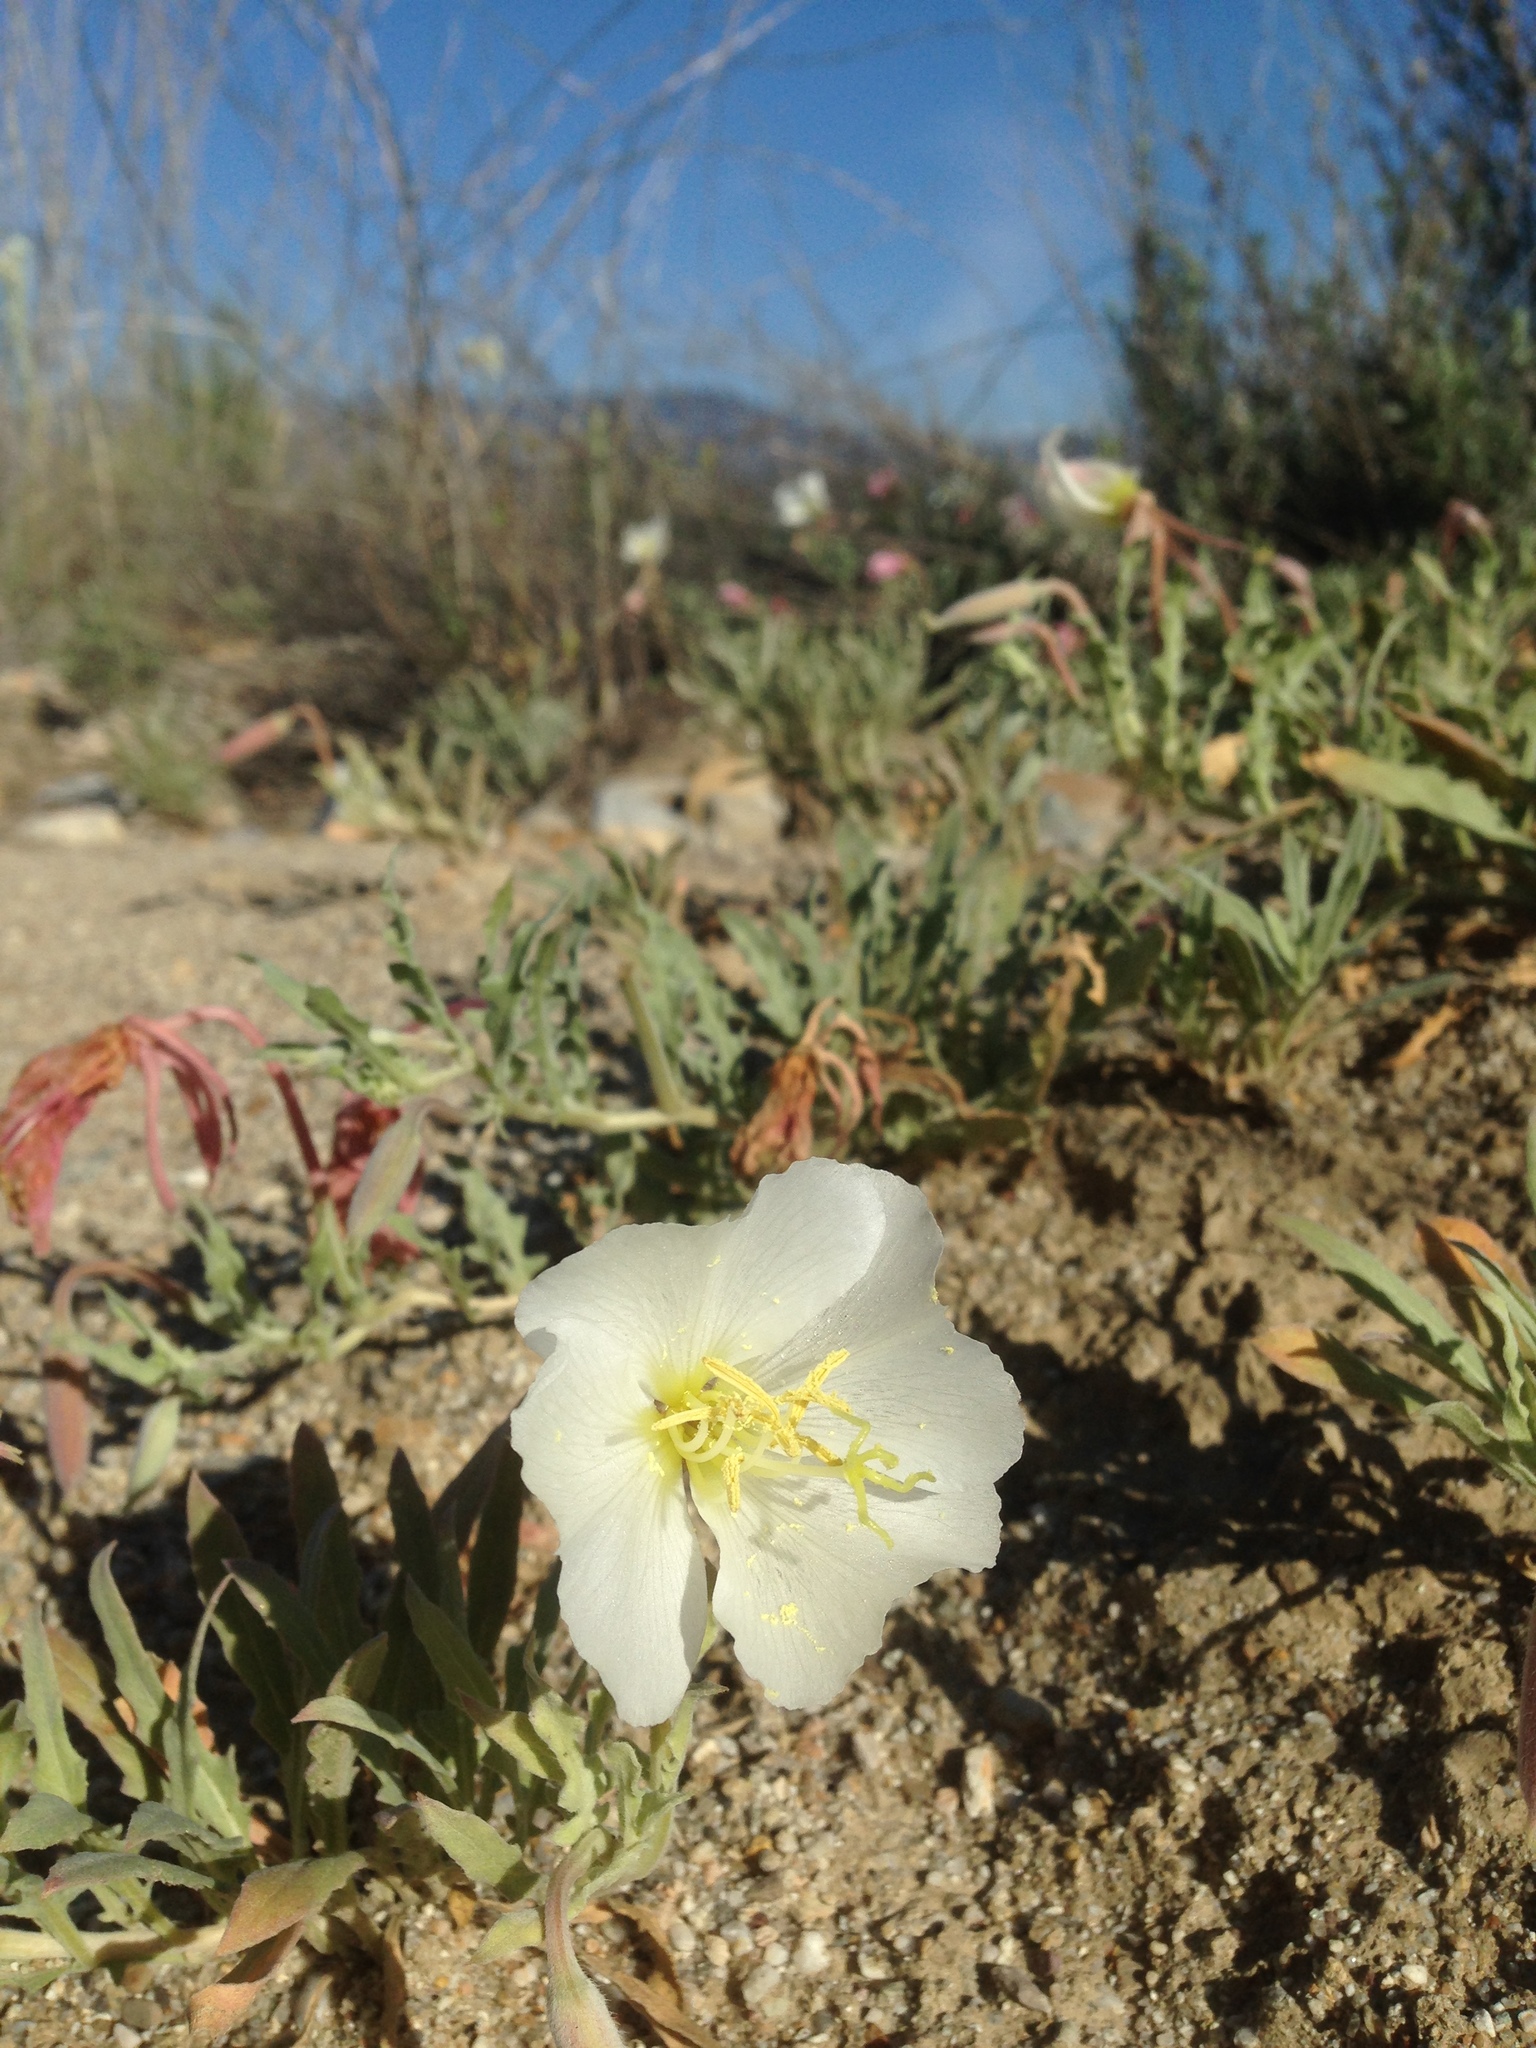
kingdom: Plantae
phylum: Tracheophyta
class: Magnoliopsida
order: Myrtales
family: Onagraceae
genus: Oenothera
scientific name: Oenothera californica
